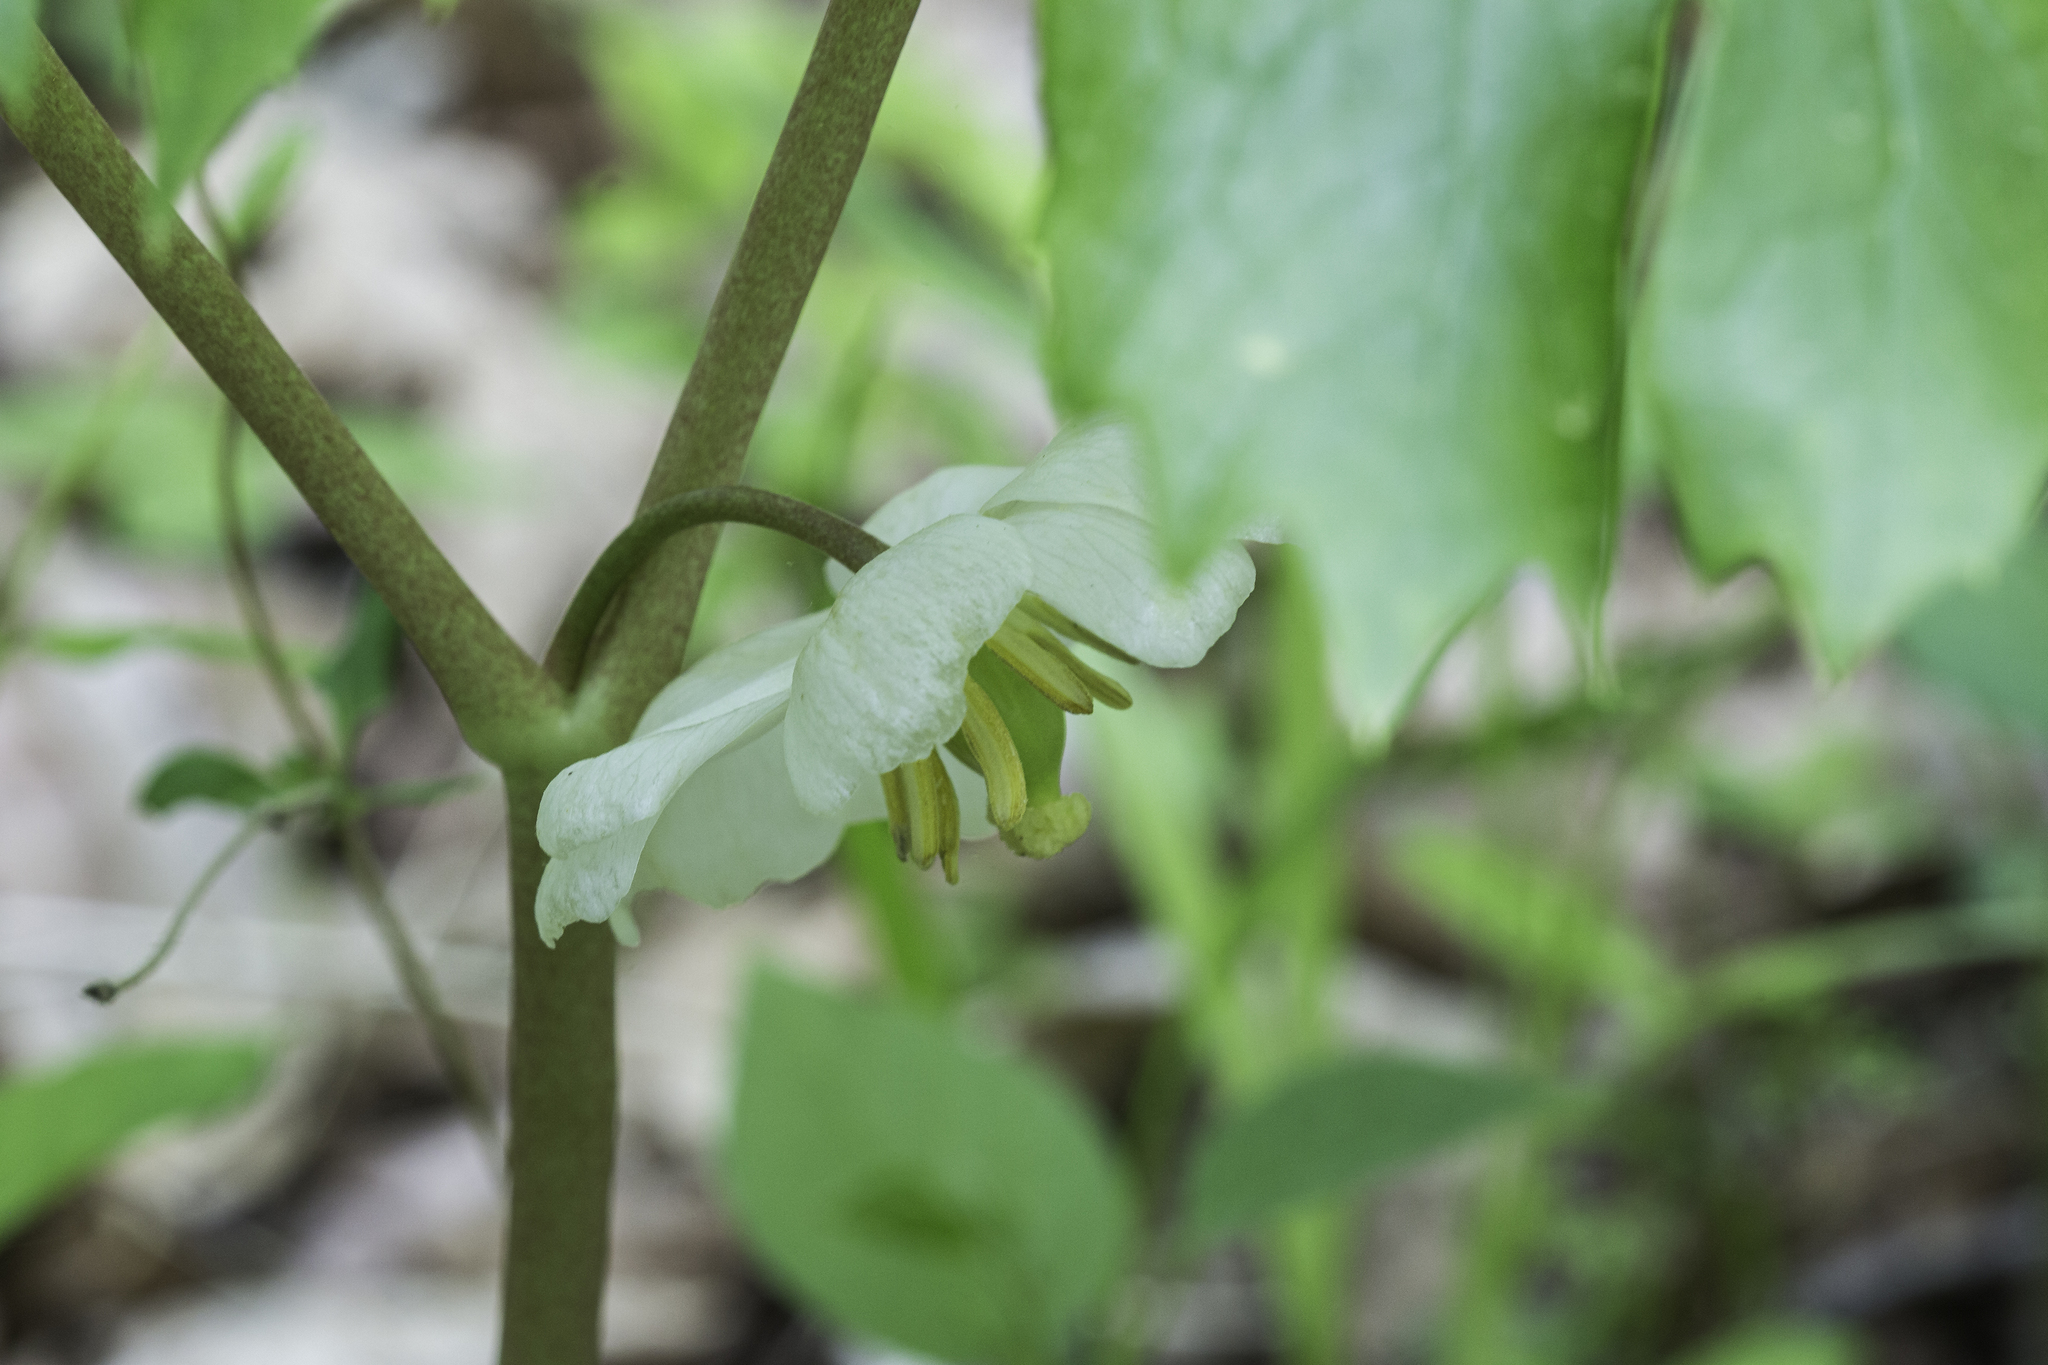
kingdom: Plantae
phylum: Tracheophyta
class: Magnoliopsida
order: Ranunculales
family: Berberidaceae
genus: Podophyllum
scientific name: Podophyllum peltatum
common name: Wild mandrake
